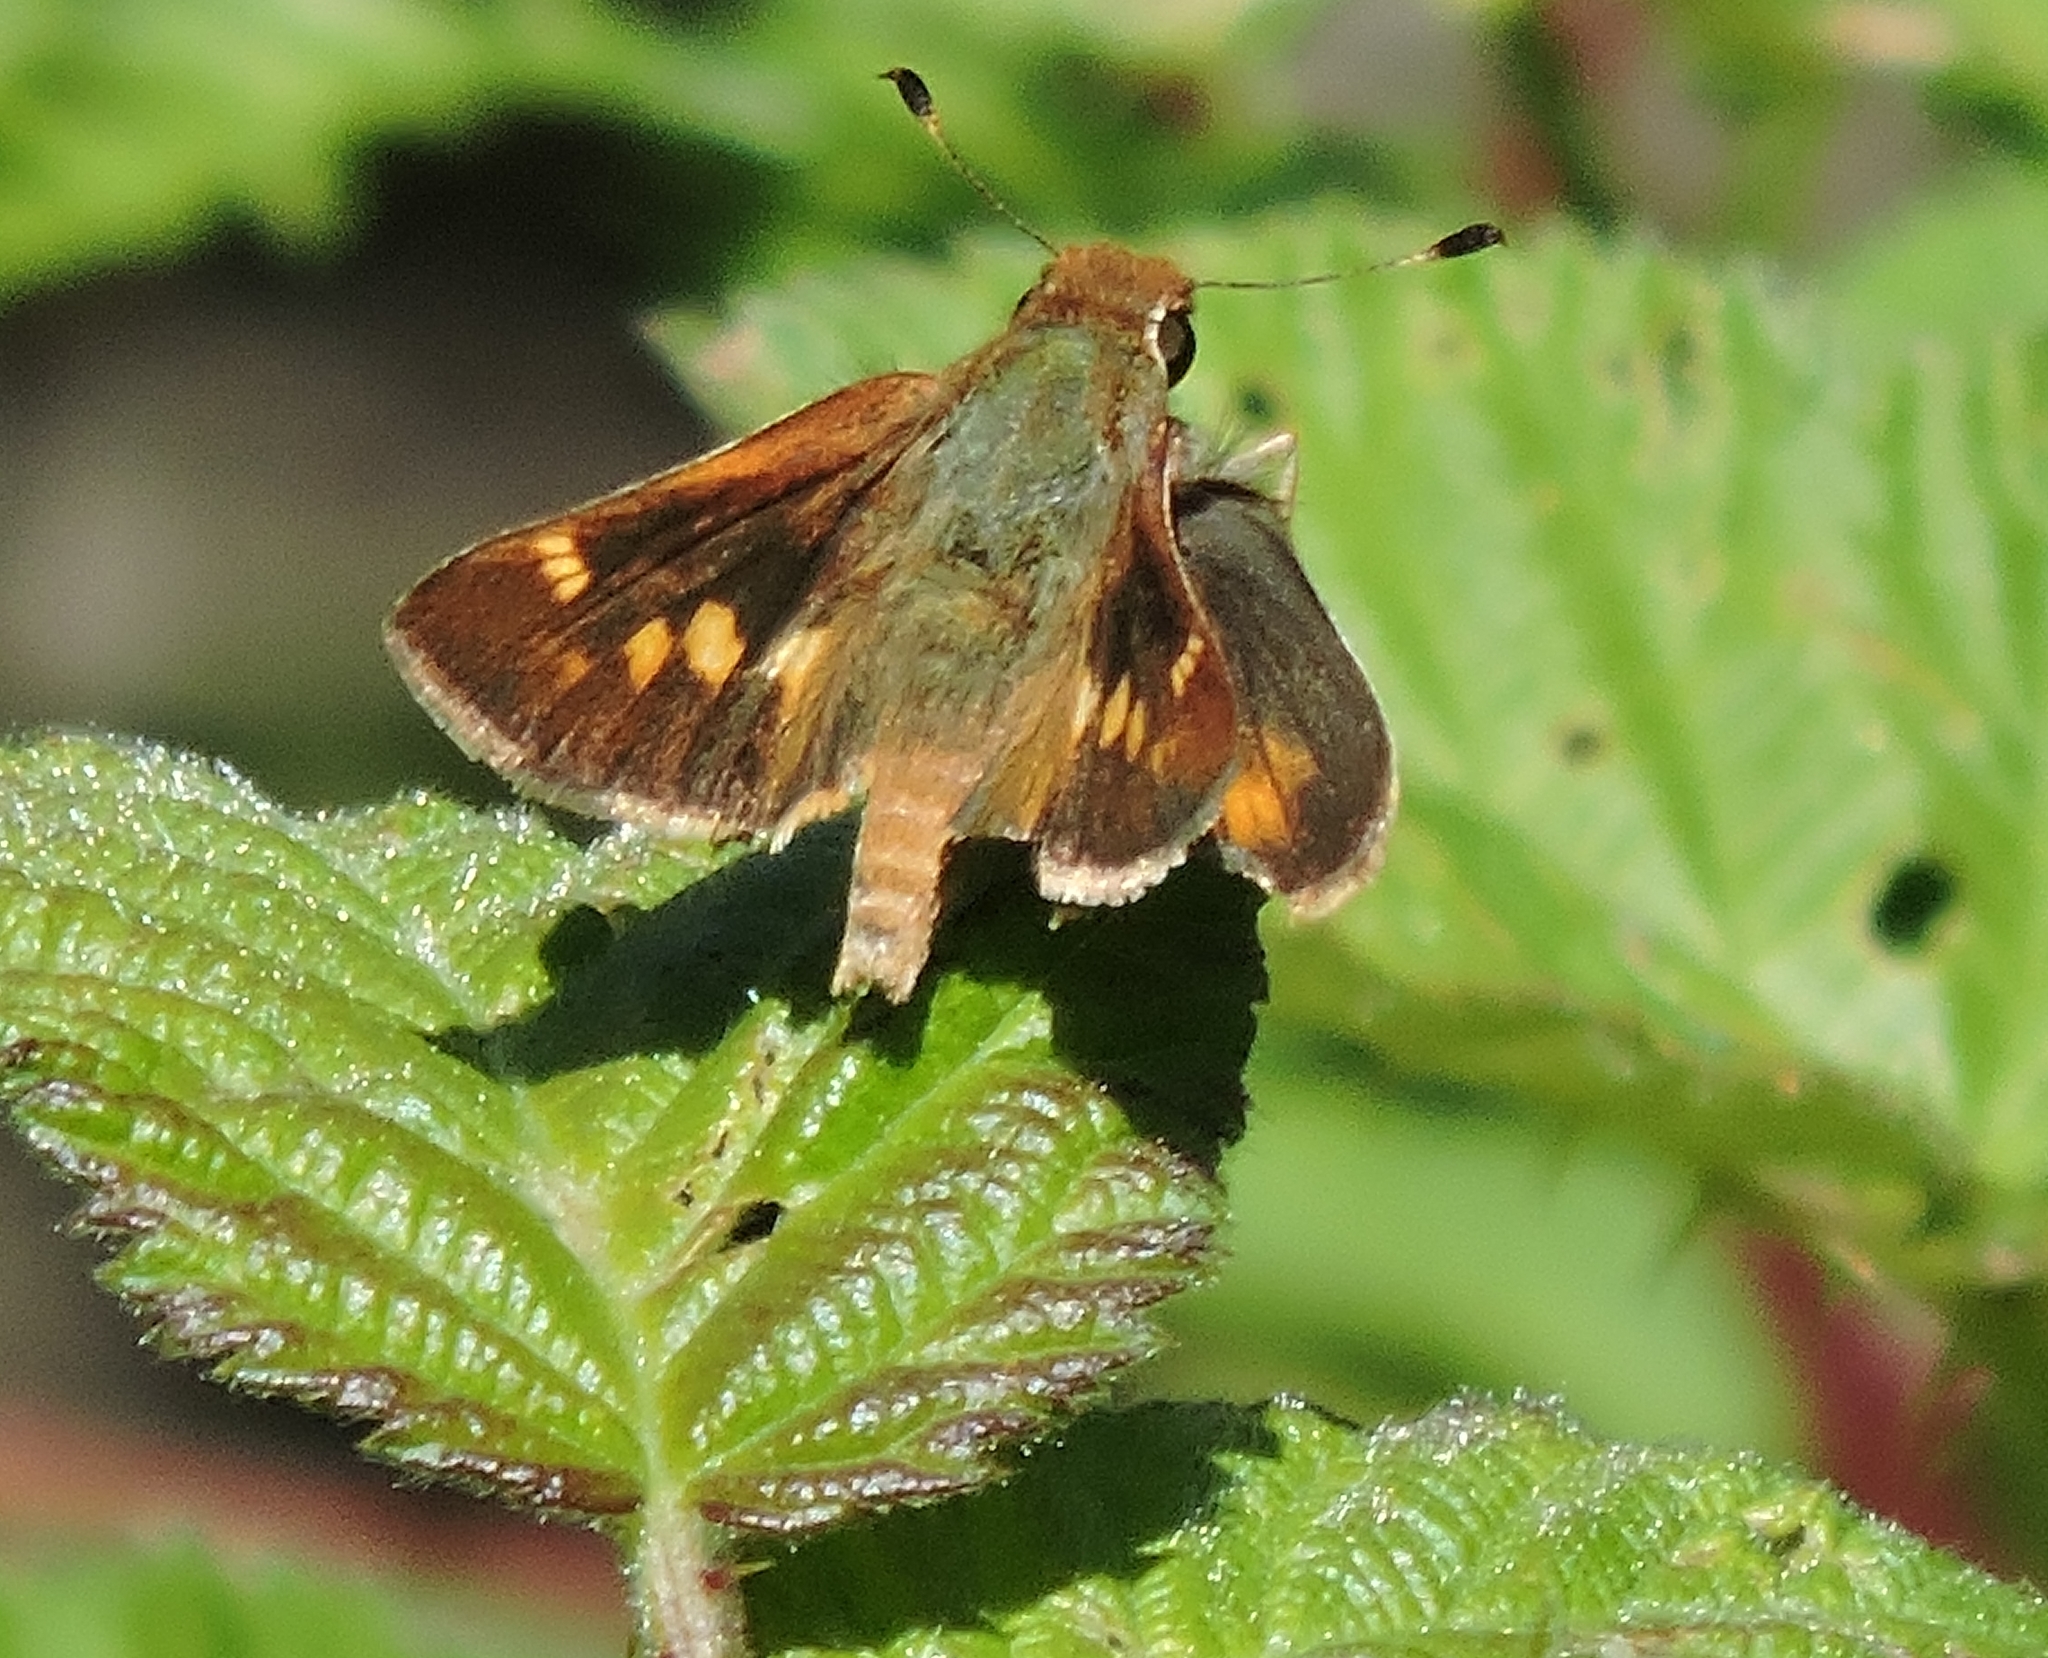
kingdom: Animalia
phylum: Arthropoda
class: Insecta
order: Lepidoptera
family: Hesperiidae
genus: Lon
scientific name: Lon melane
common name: Umber skipper
